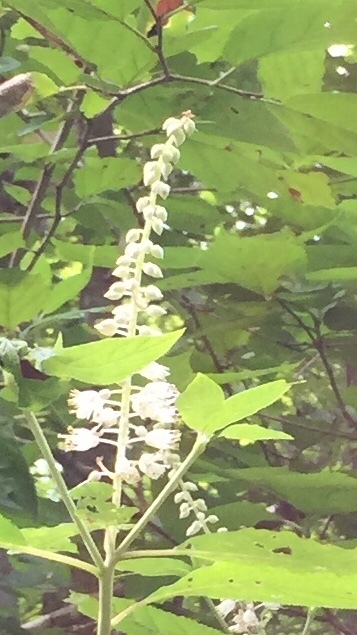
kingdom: Plantae
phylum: Tracheophyta
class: Magnoliopsida
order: Ericales
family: Clethraceae
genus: Clethra
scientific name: Clethra acuminata
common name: Mountain sweet pepperbush
